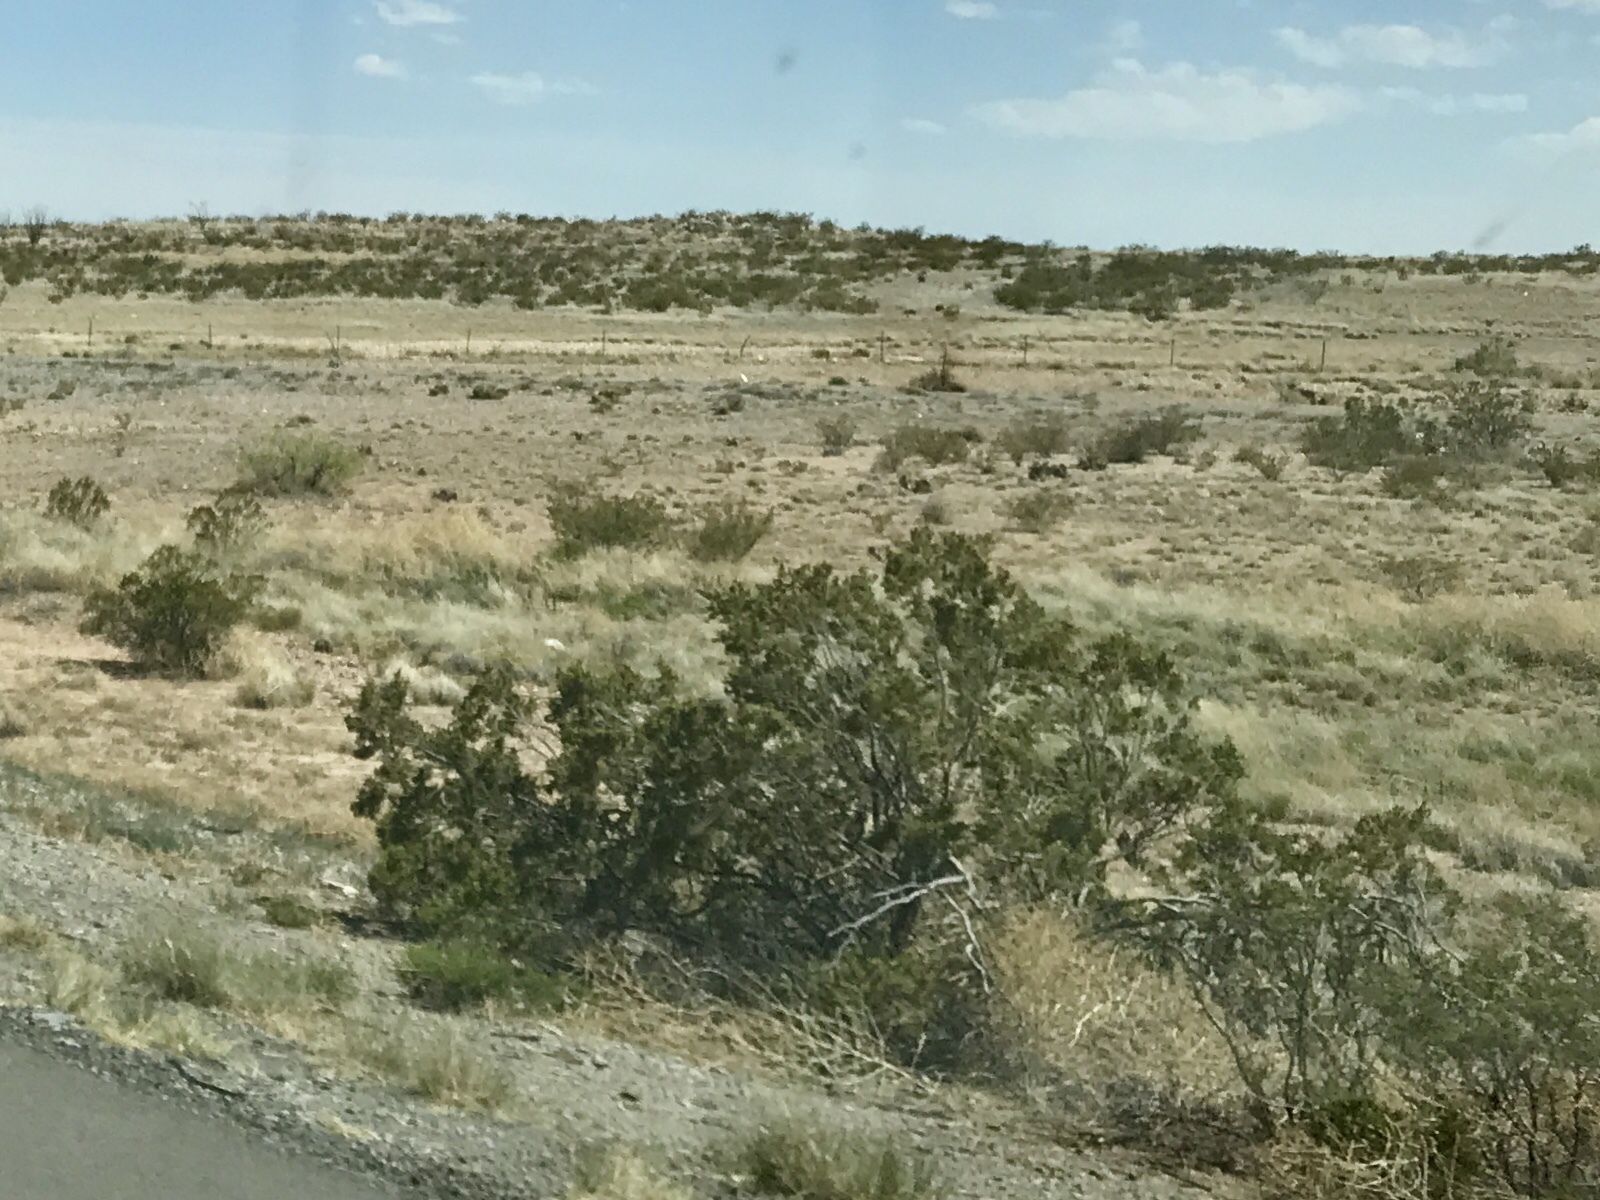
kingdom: Plantae
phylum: Tracheophyta
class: Magnoliopsida
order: Zygophyllales
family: Zygophyllaceae
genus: Larrea
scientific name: Larrea tridentata
